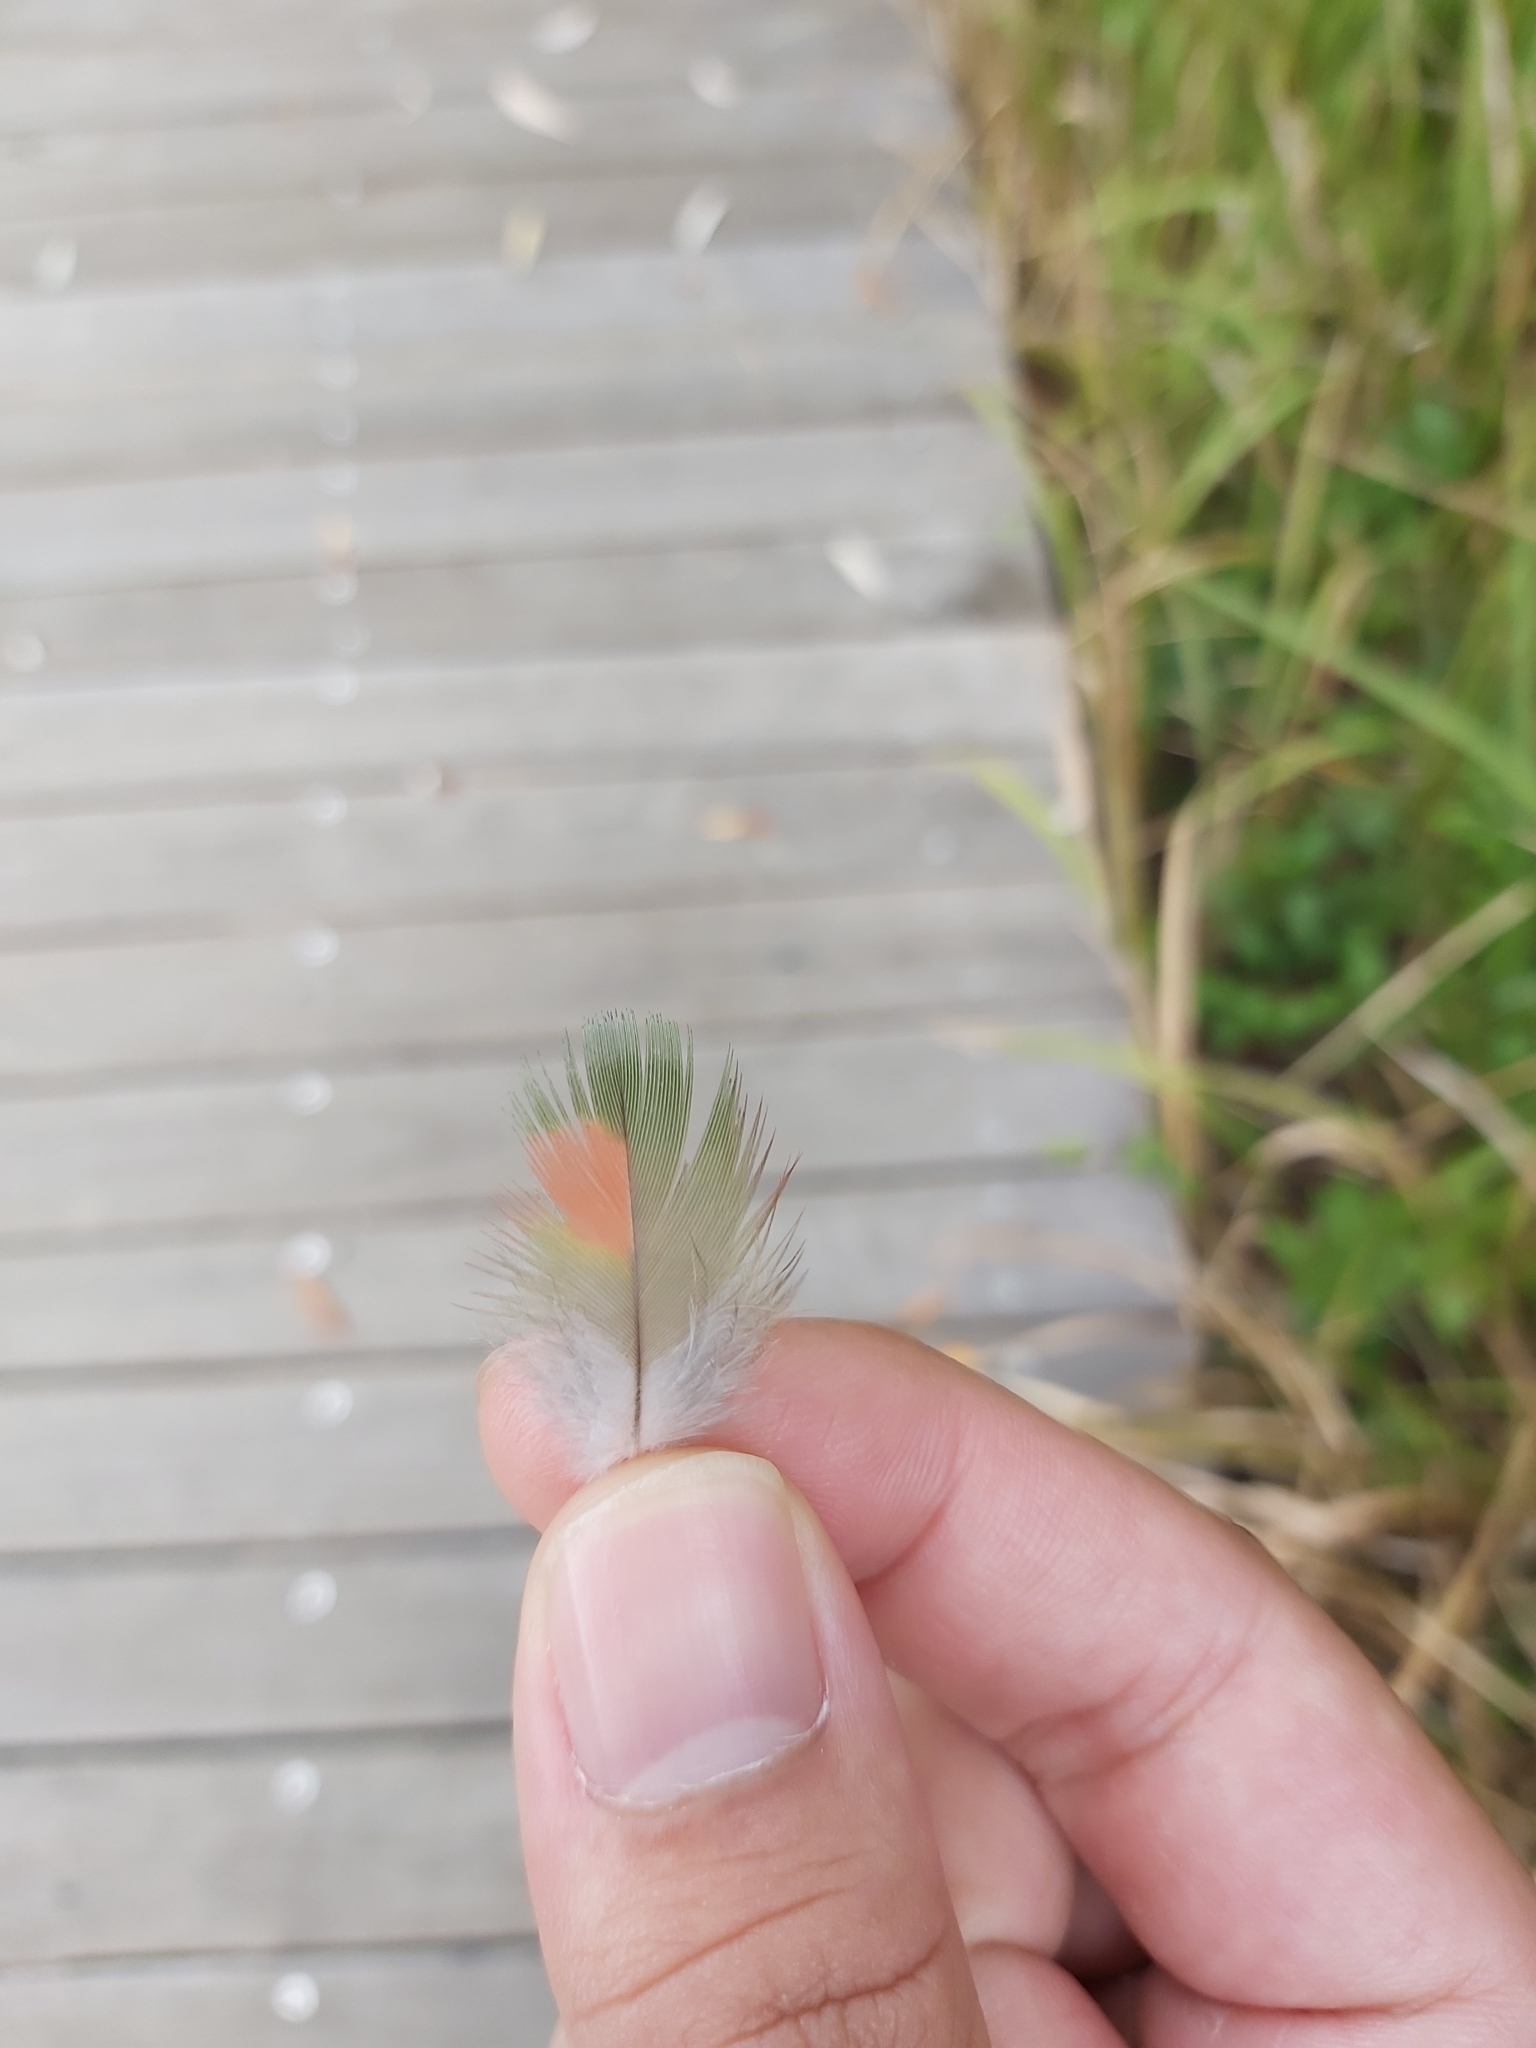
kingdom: Animalia
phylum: Chordata
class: Aves
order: Psittaciformes
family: Psittacidae
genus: Trichoglossus
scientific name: Trichoglossus haematodus
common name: Coconut lorikeet
